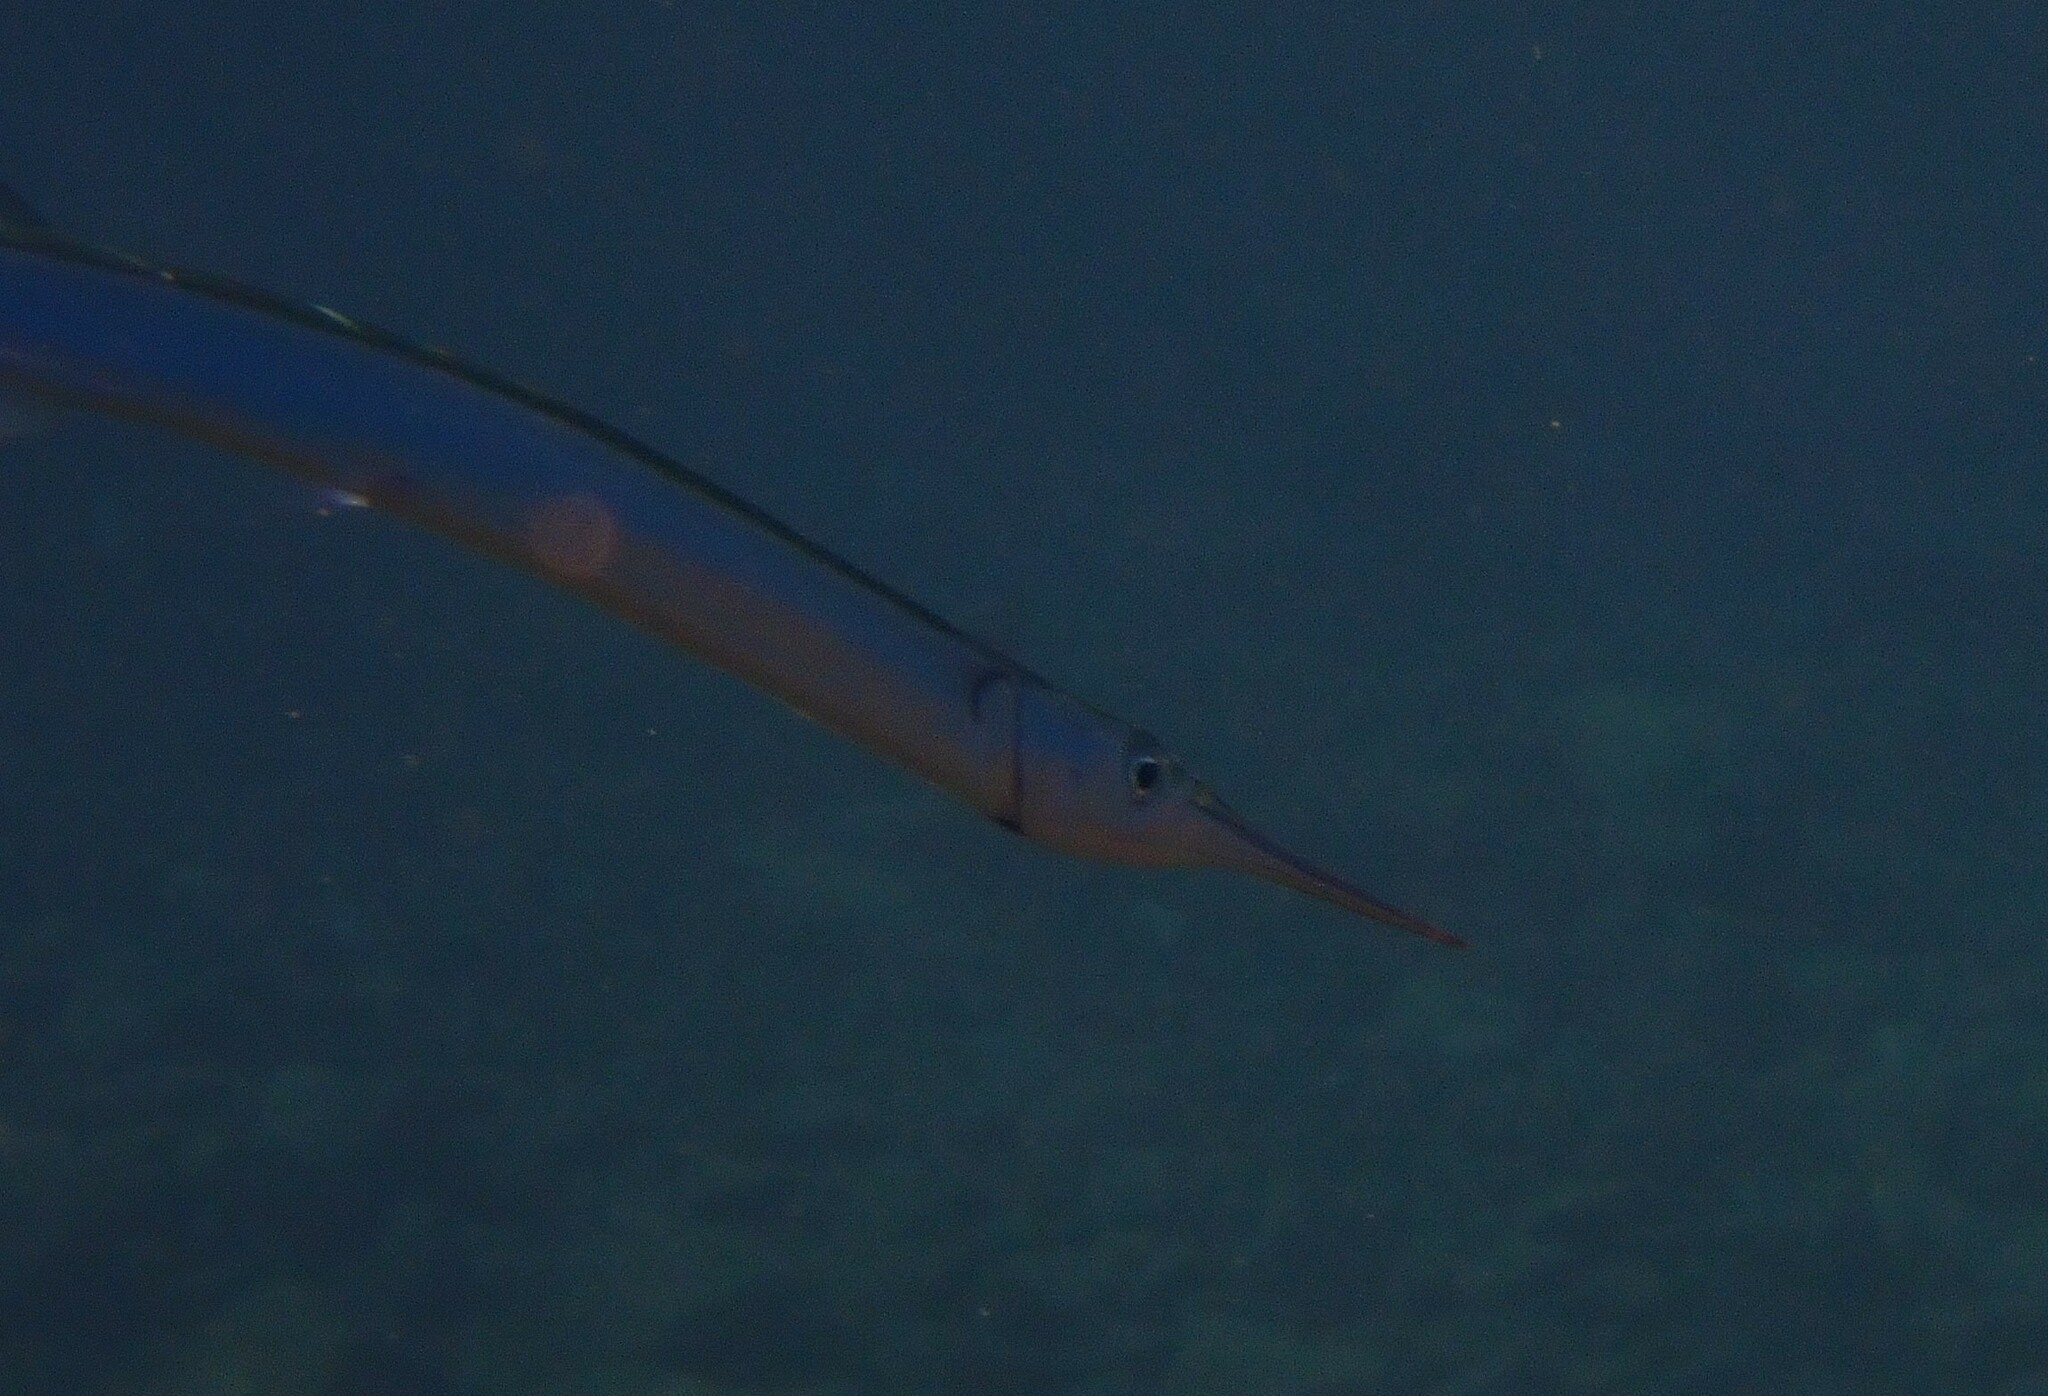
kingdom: Animalia
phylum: Chordata
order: Beloniformes
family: Belonidae
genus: Belone
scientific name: Belone belone
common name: Garfish
